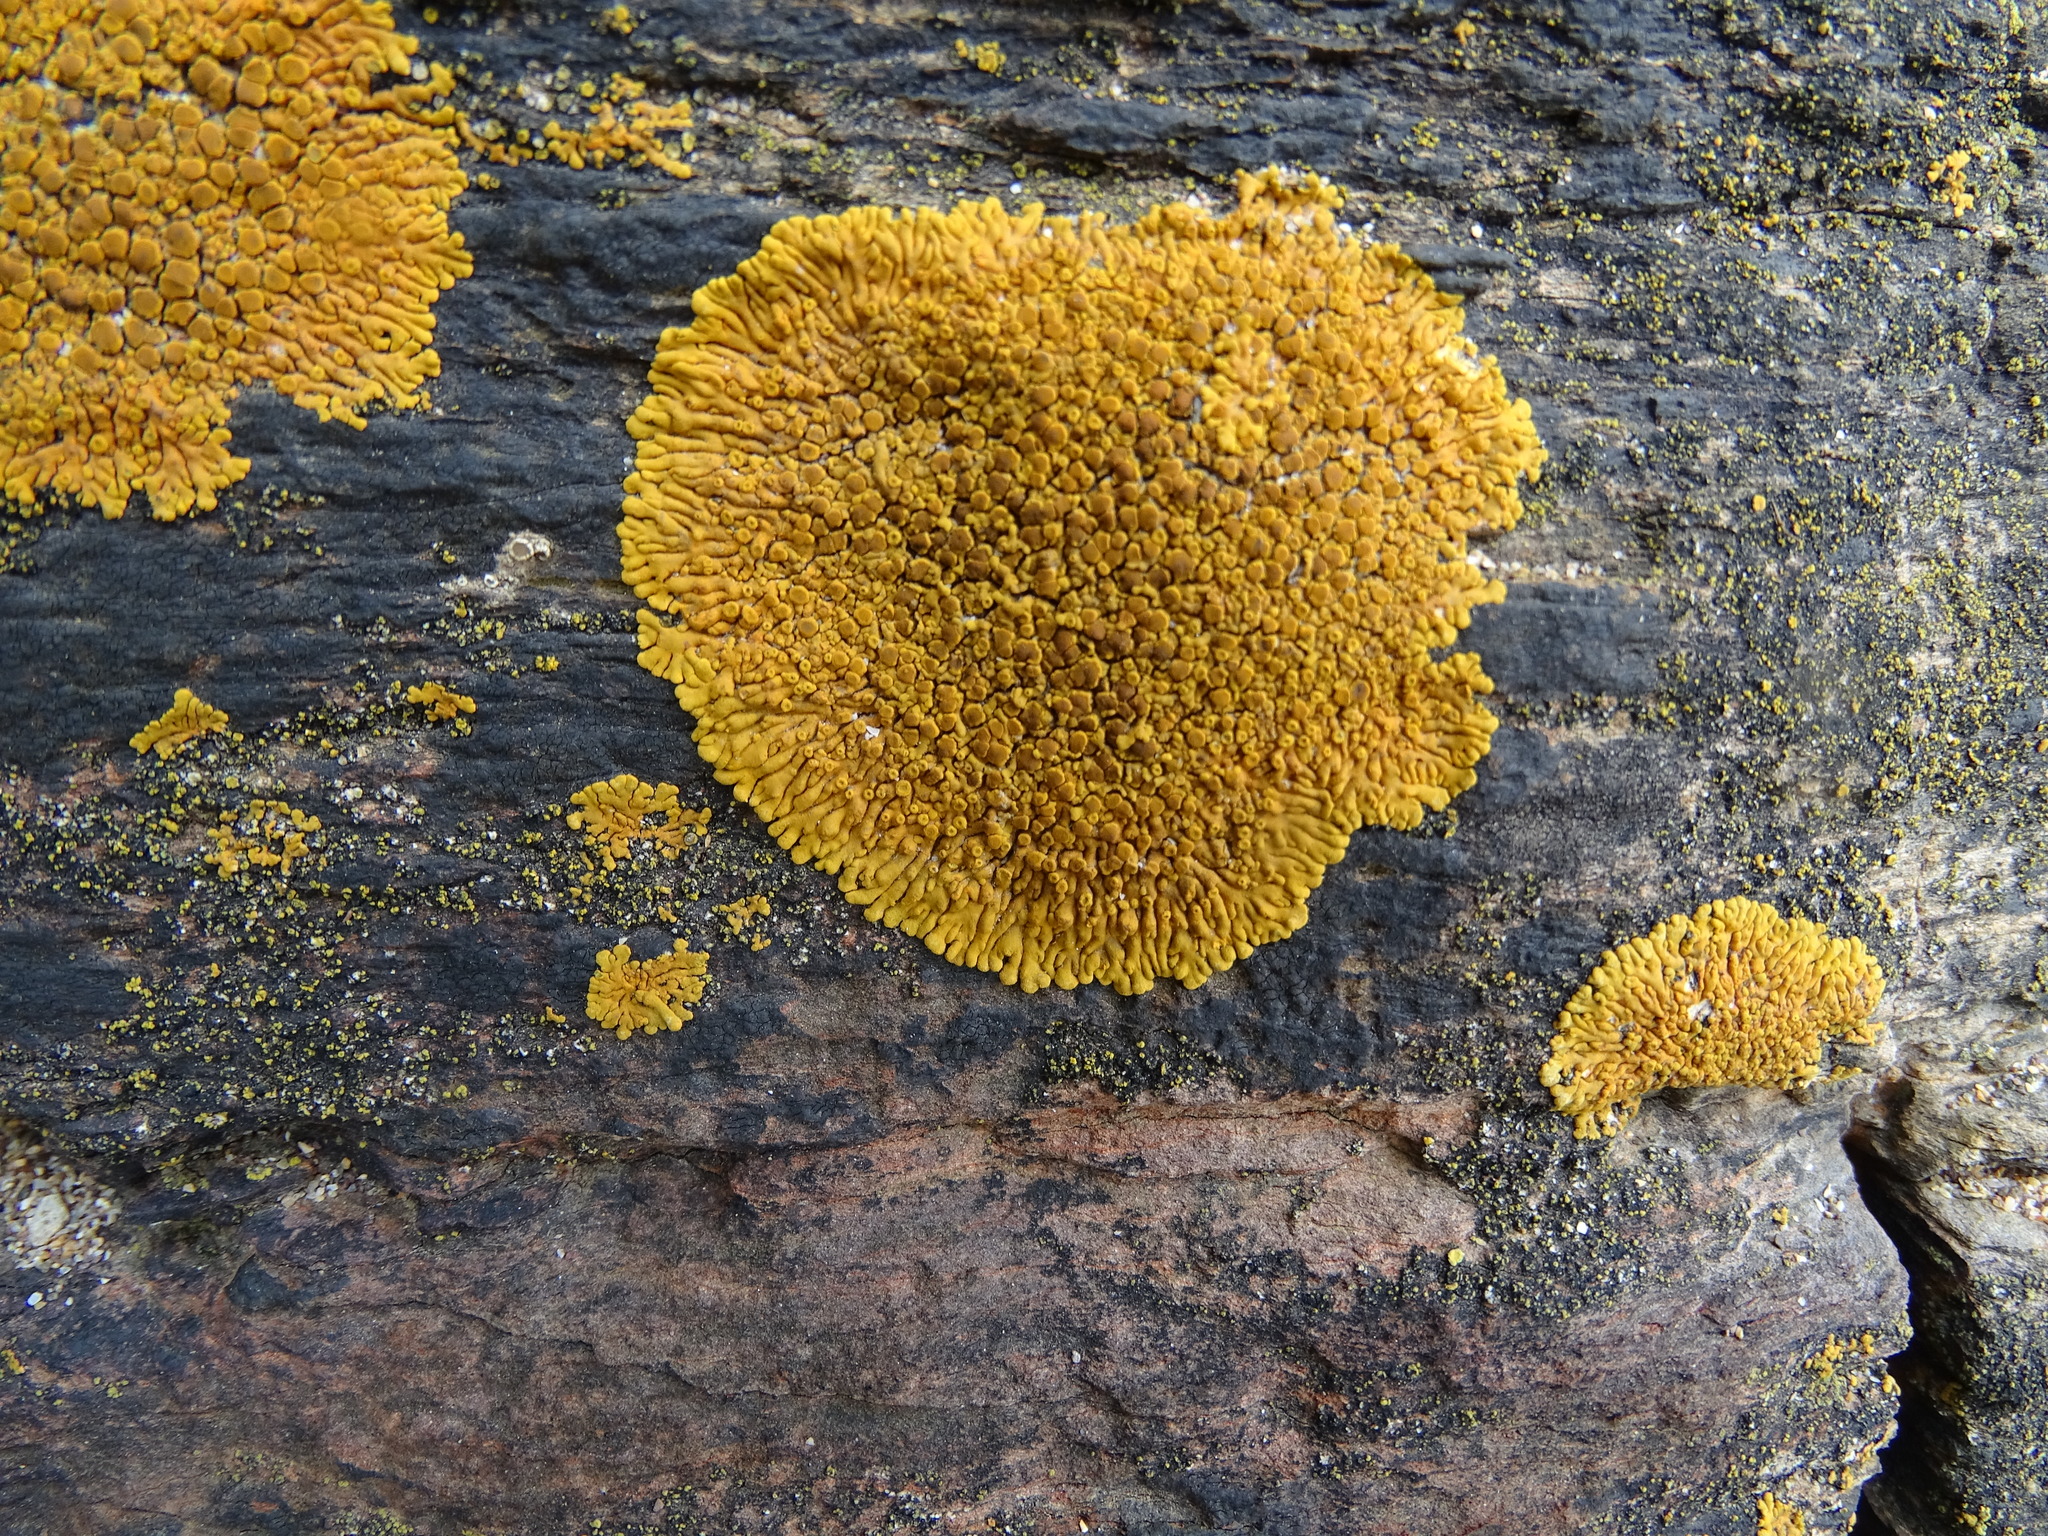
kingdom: Fungi
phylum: Ascomycota
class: Lecanoromycetes
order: Teloschistales
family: Teloschistaceae
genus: Variospora
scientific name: Variospora thallincola
